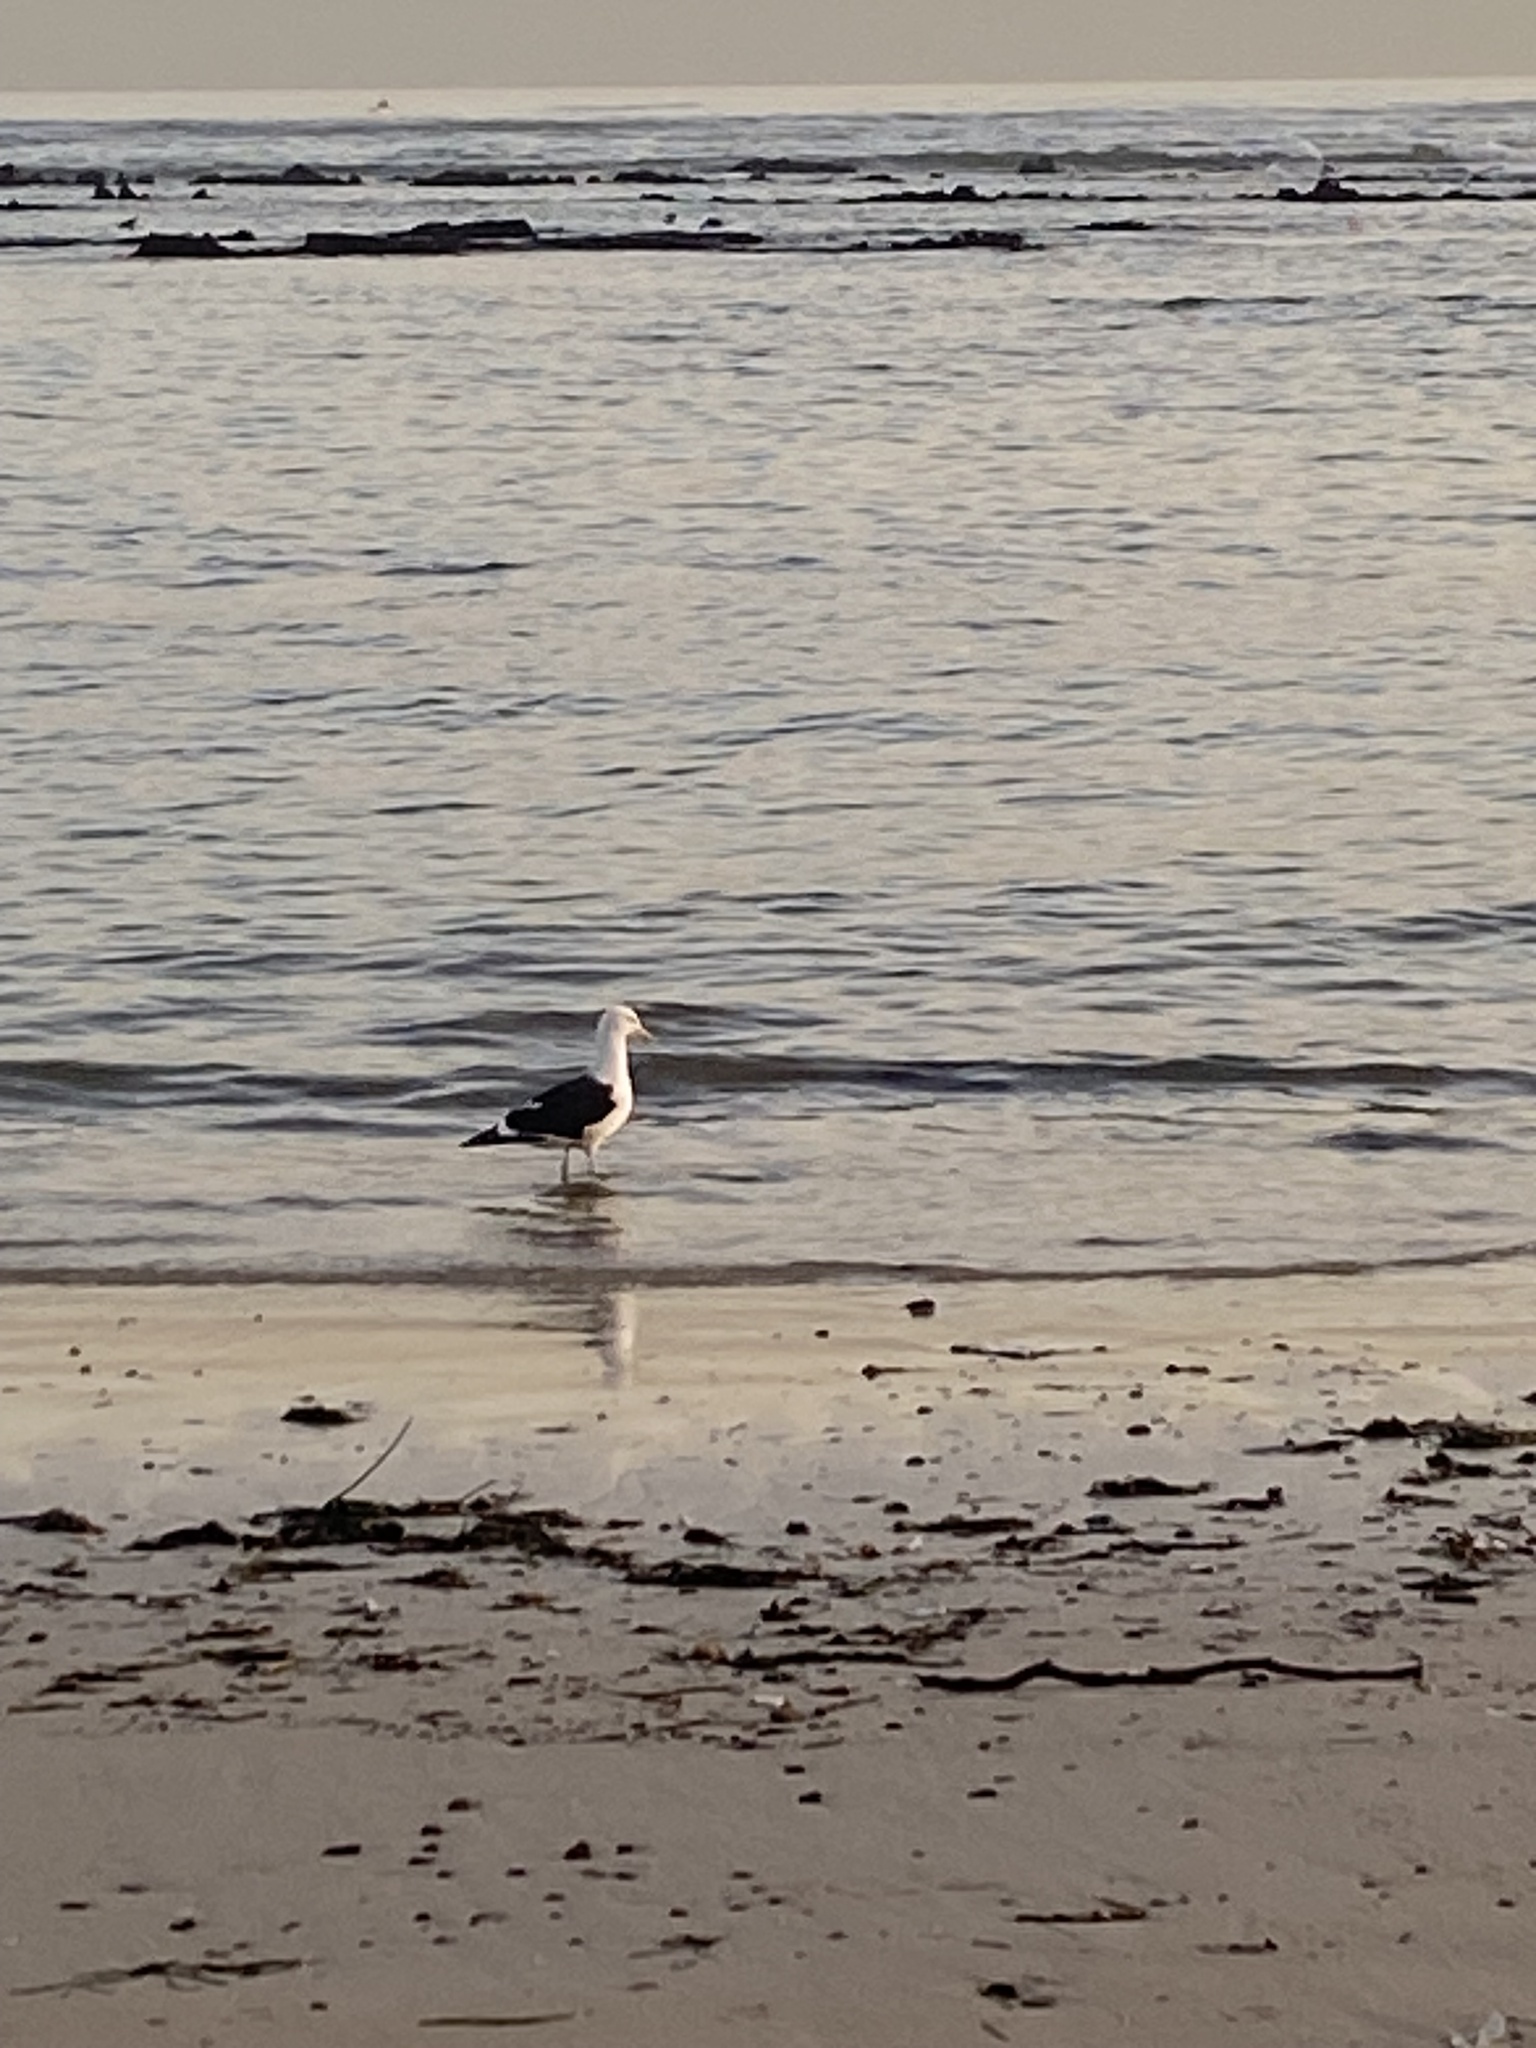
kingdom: Animalia
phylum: Chordata
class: Aves
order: Charadriiformes
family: Laridae
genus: Larus
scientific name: Larus dominicanus
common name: Kelp gull
